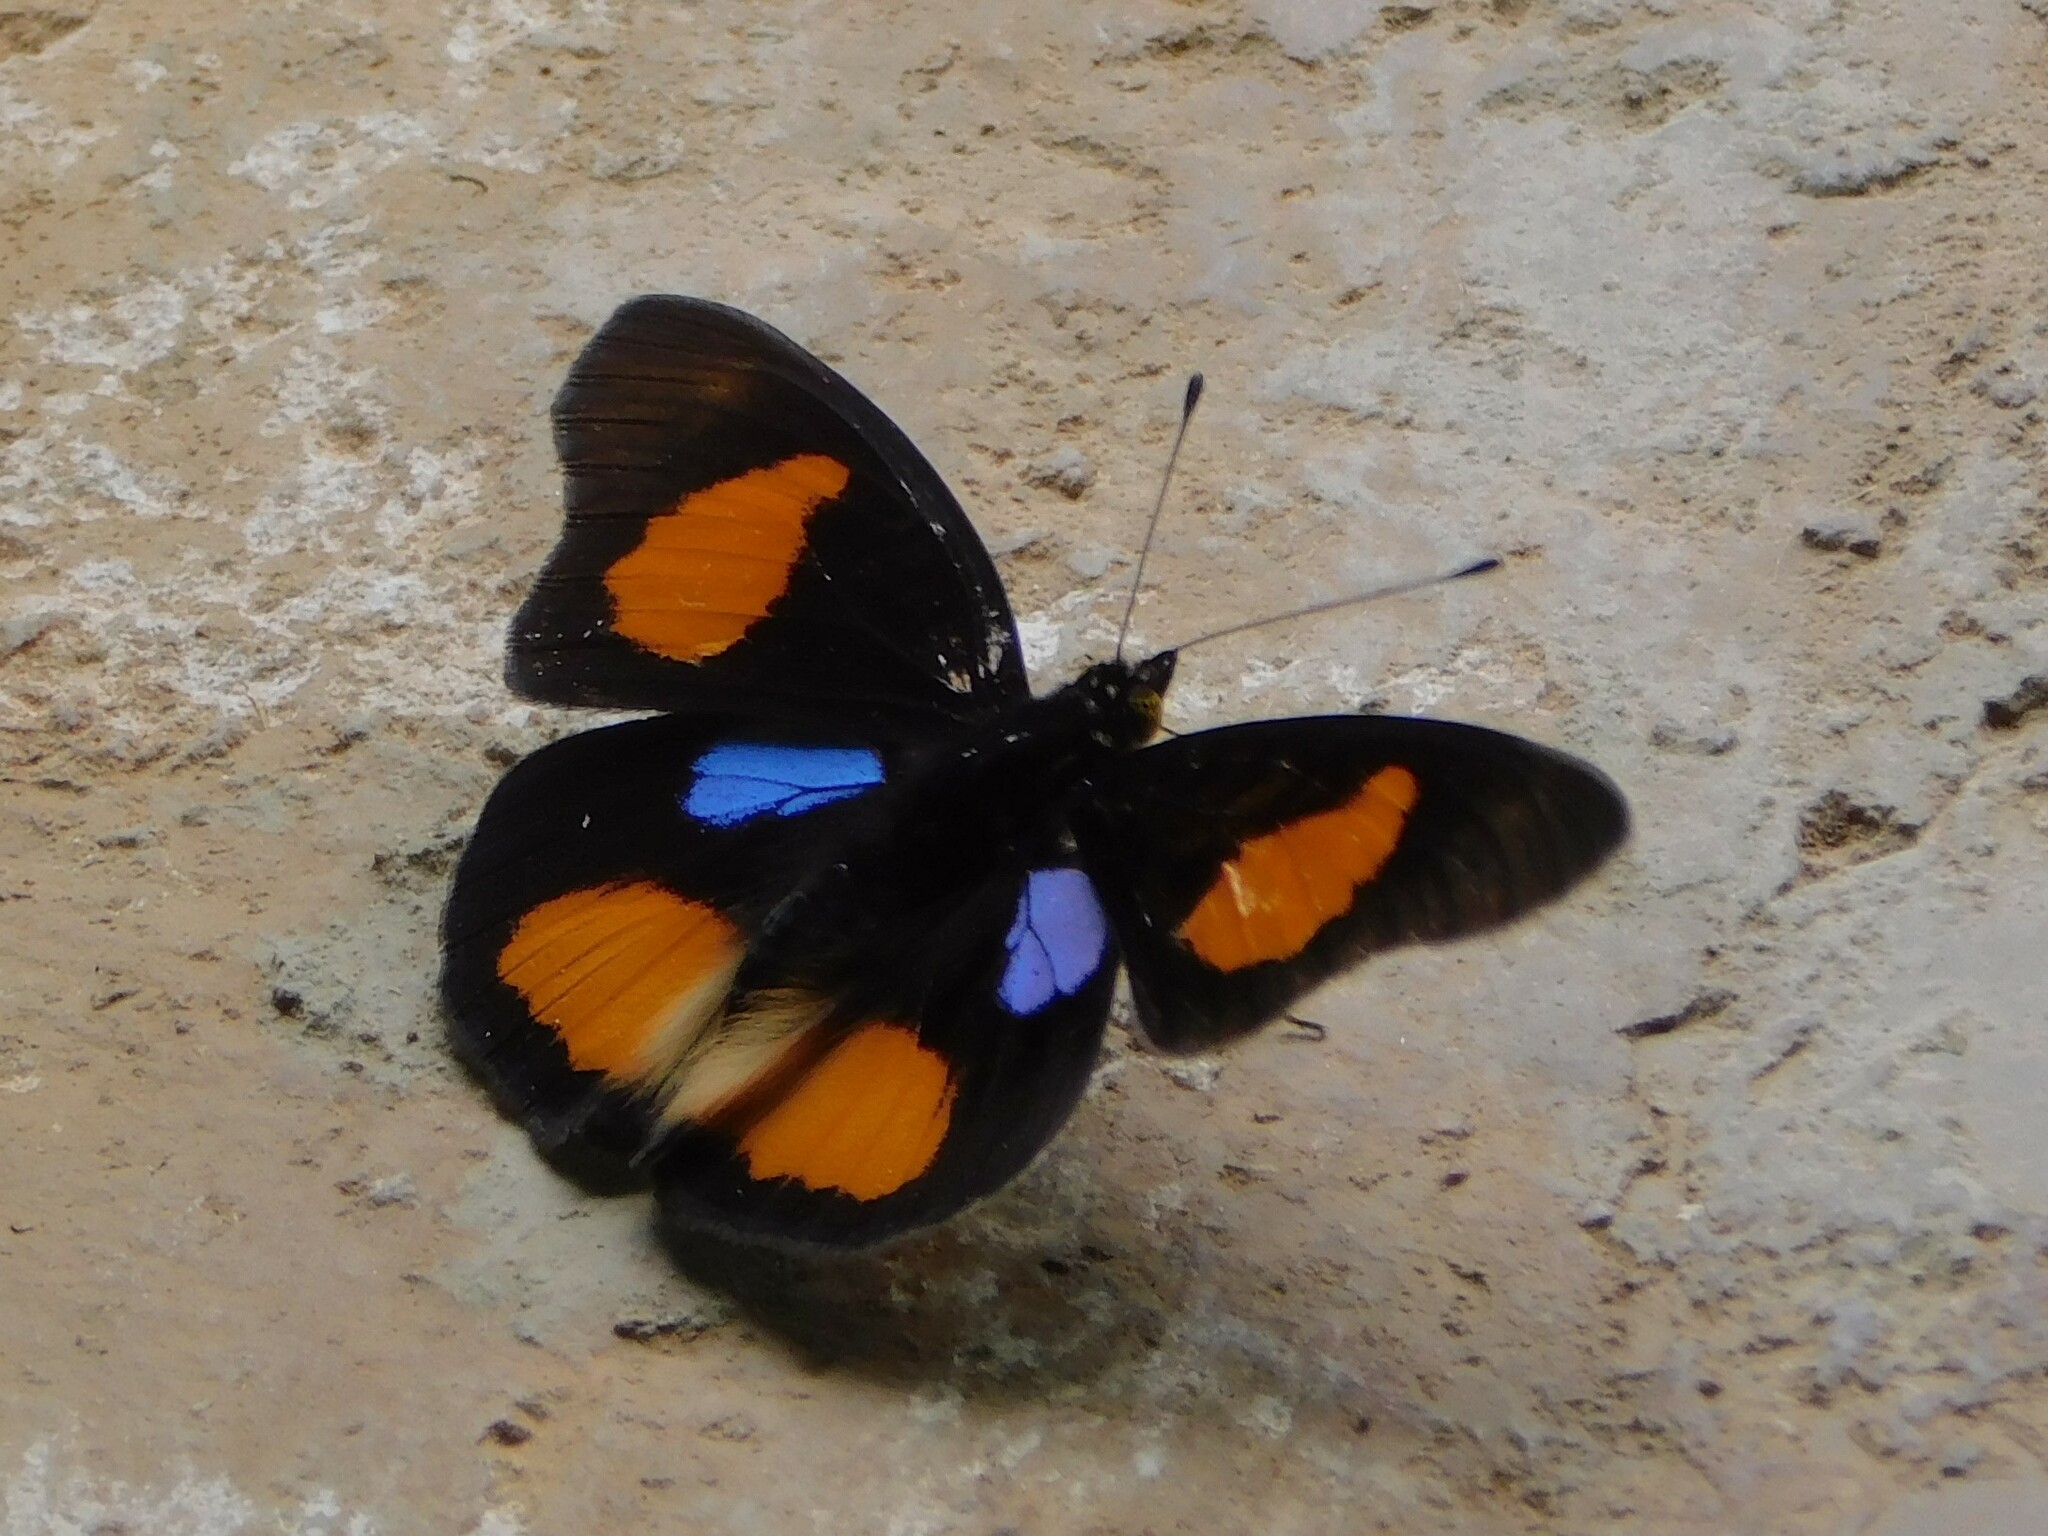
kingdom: Animalia
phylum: Arthropoda
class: Insecta
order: Lepidoptera
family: Nymphalidae
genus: Junonia
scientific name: Junonia westermanni
